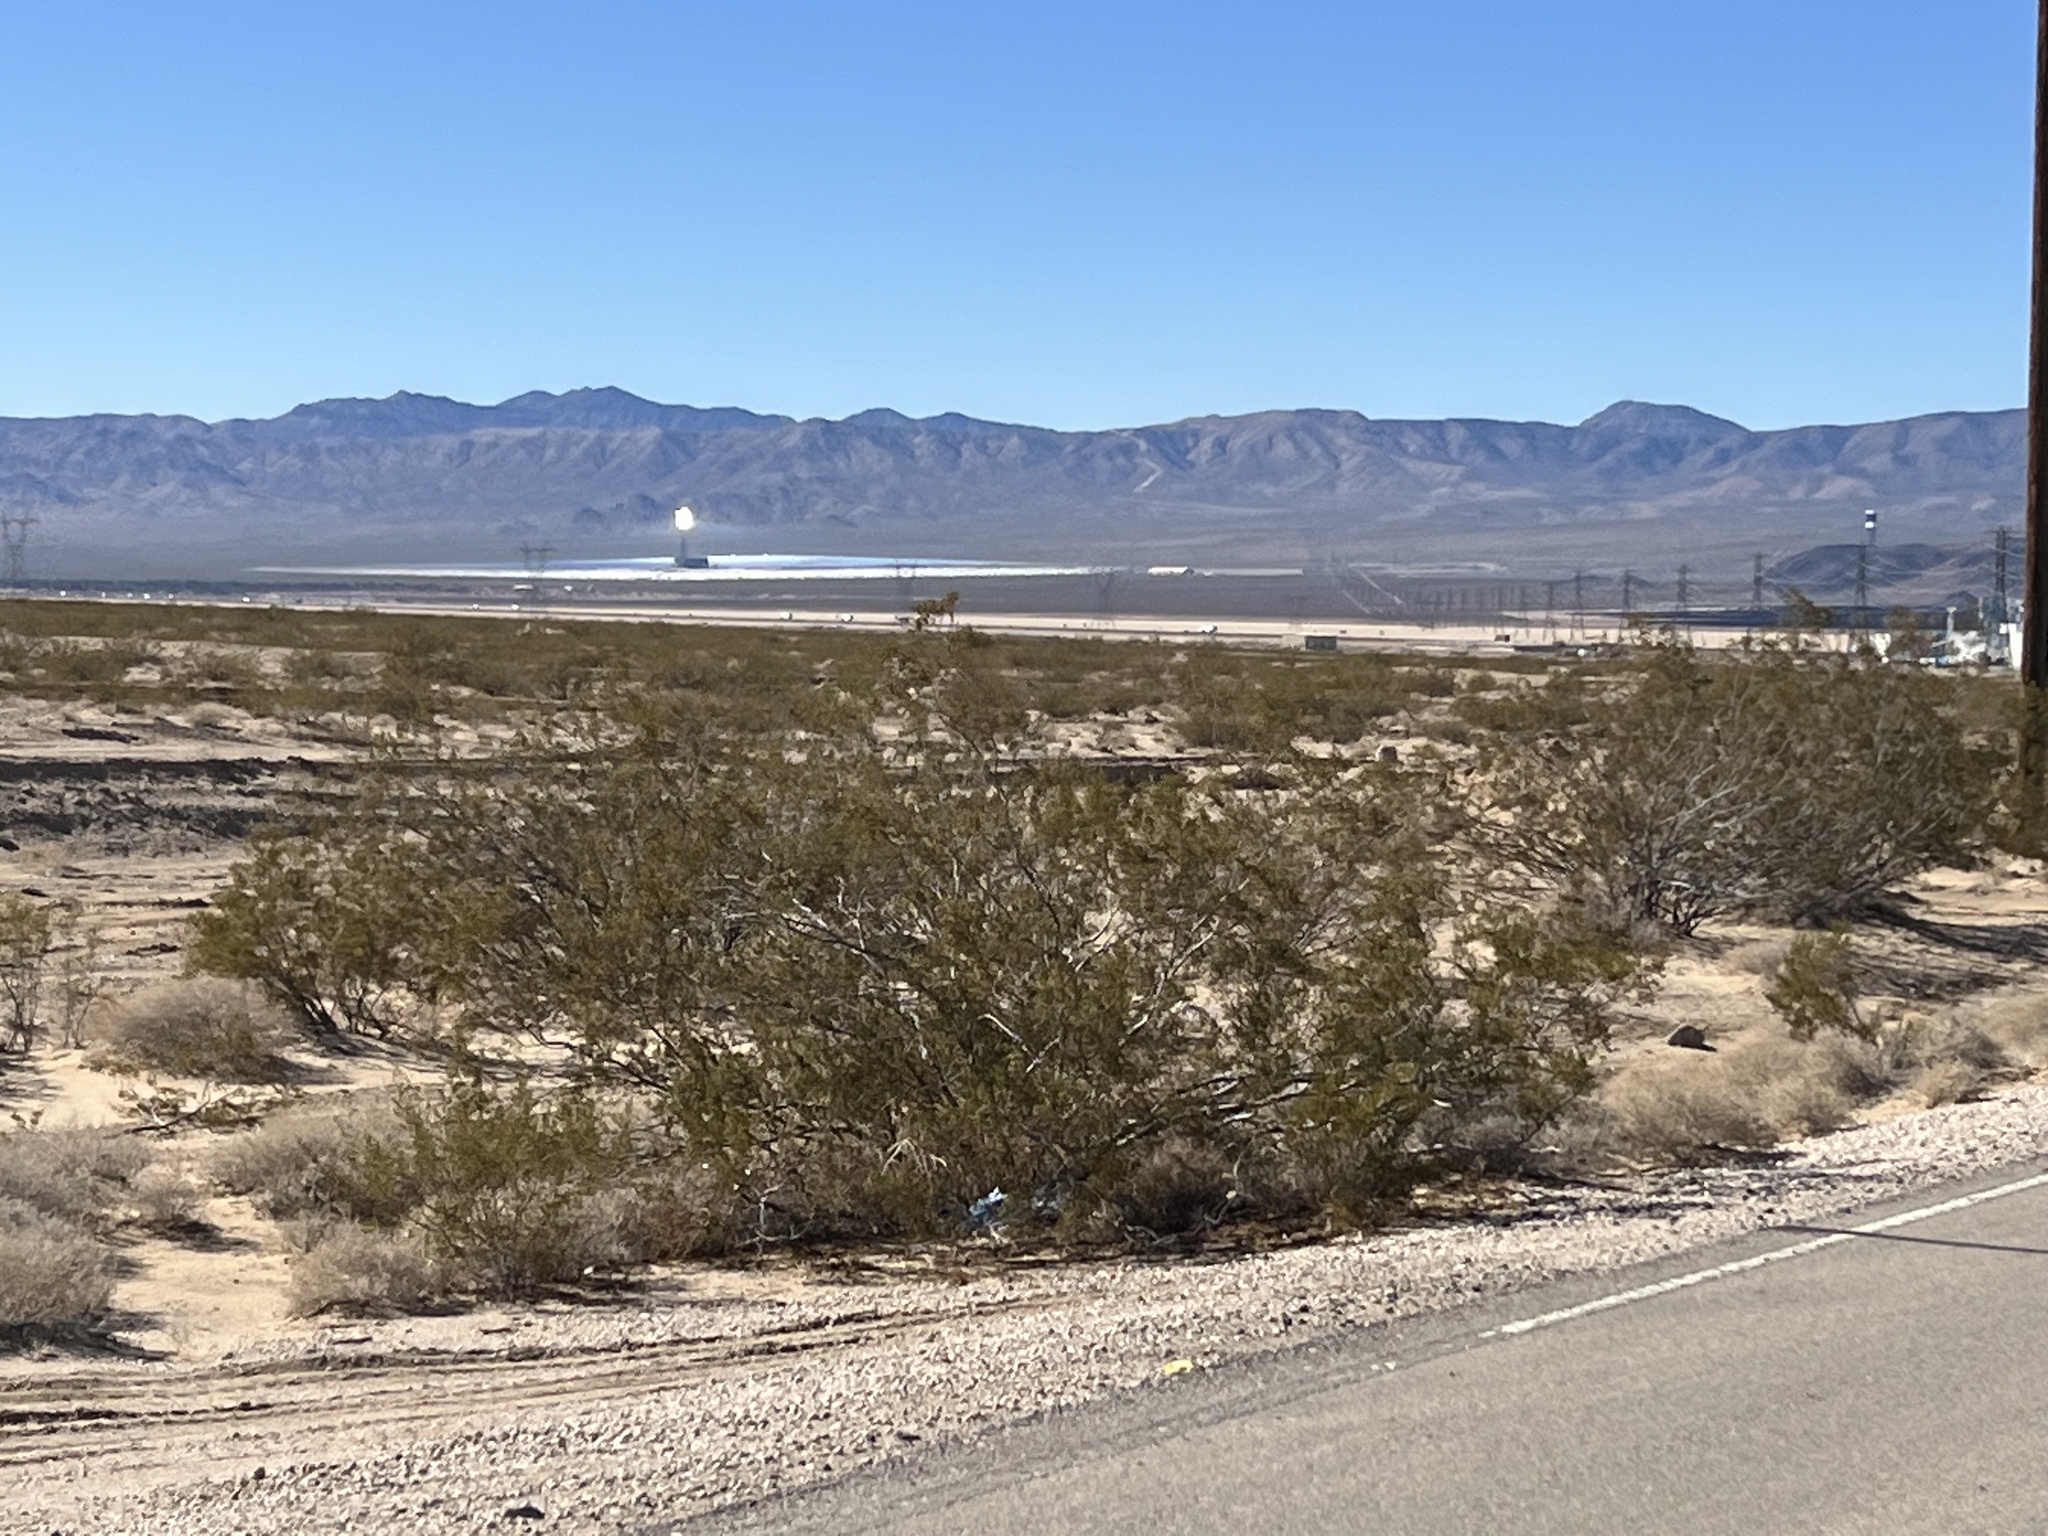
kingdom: Plantae
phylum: Tracheophyta
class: Magnoliopsida
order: Zygophyllales
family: Zygophyllaceae
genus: Larrea
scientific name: Larrea tridentata
